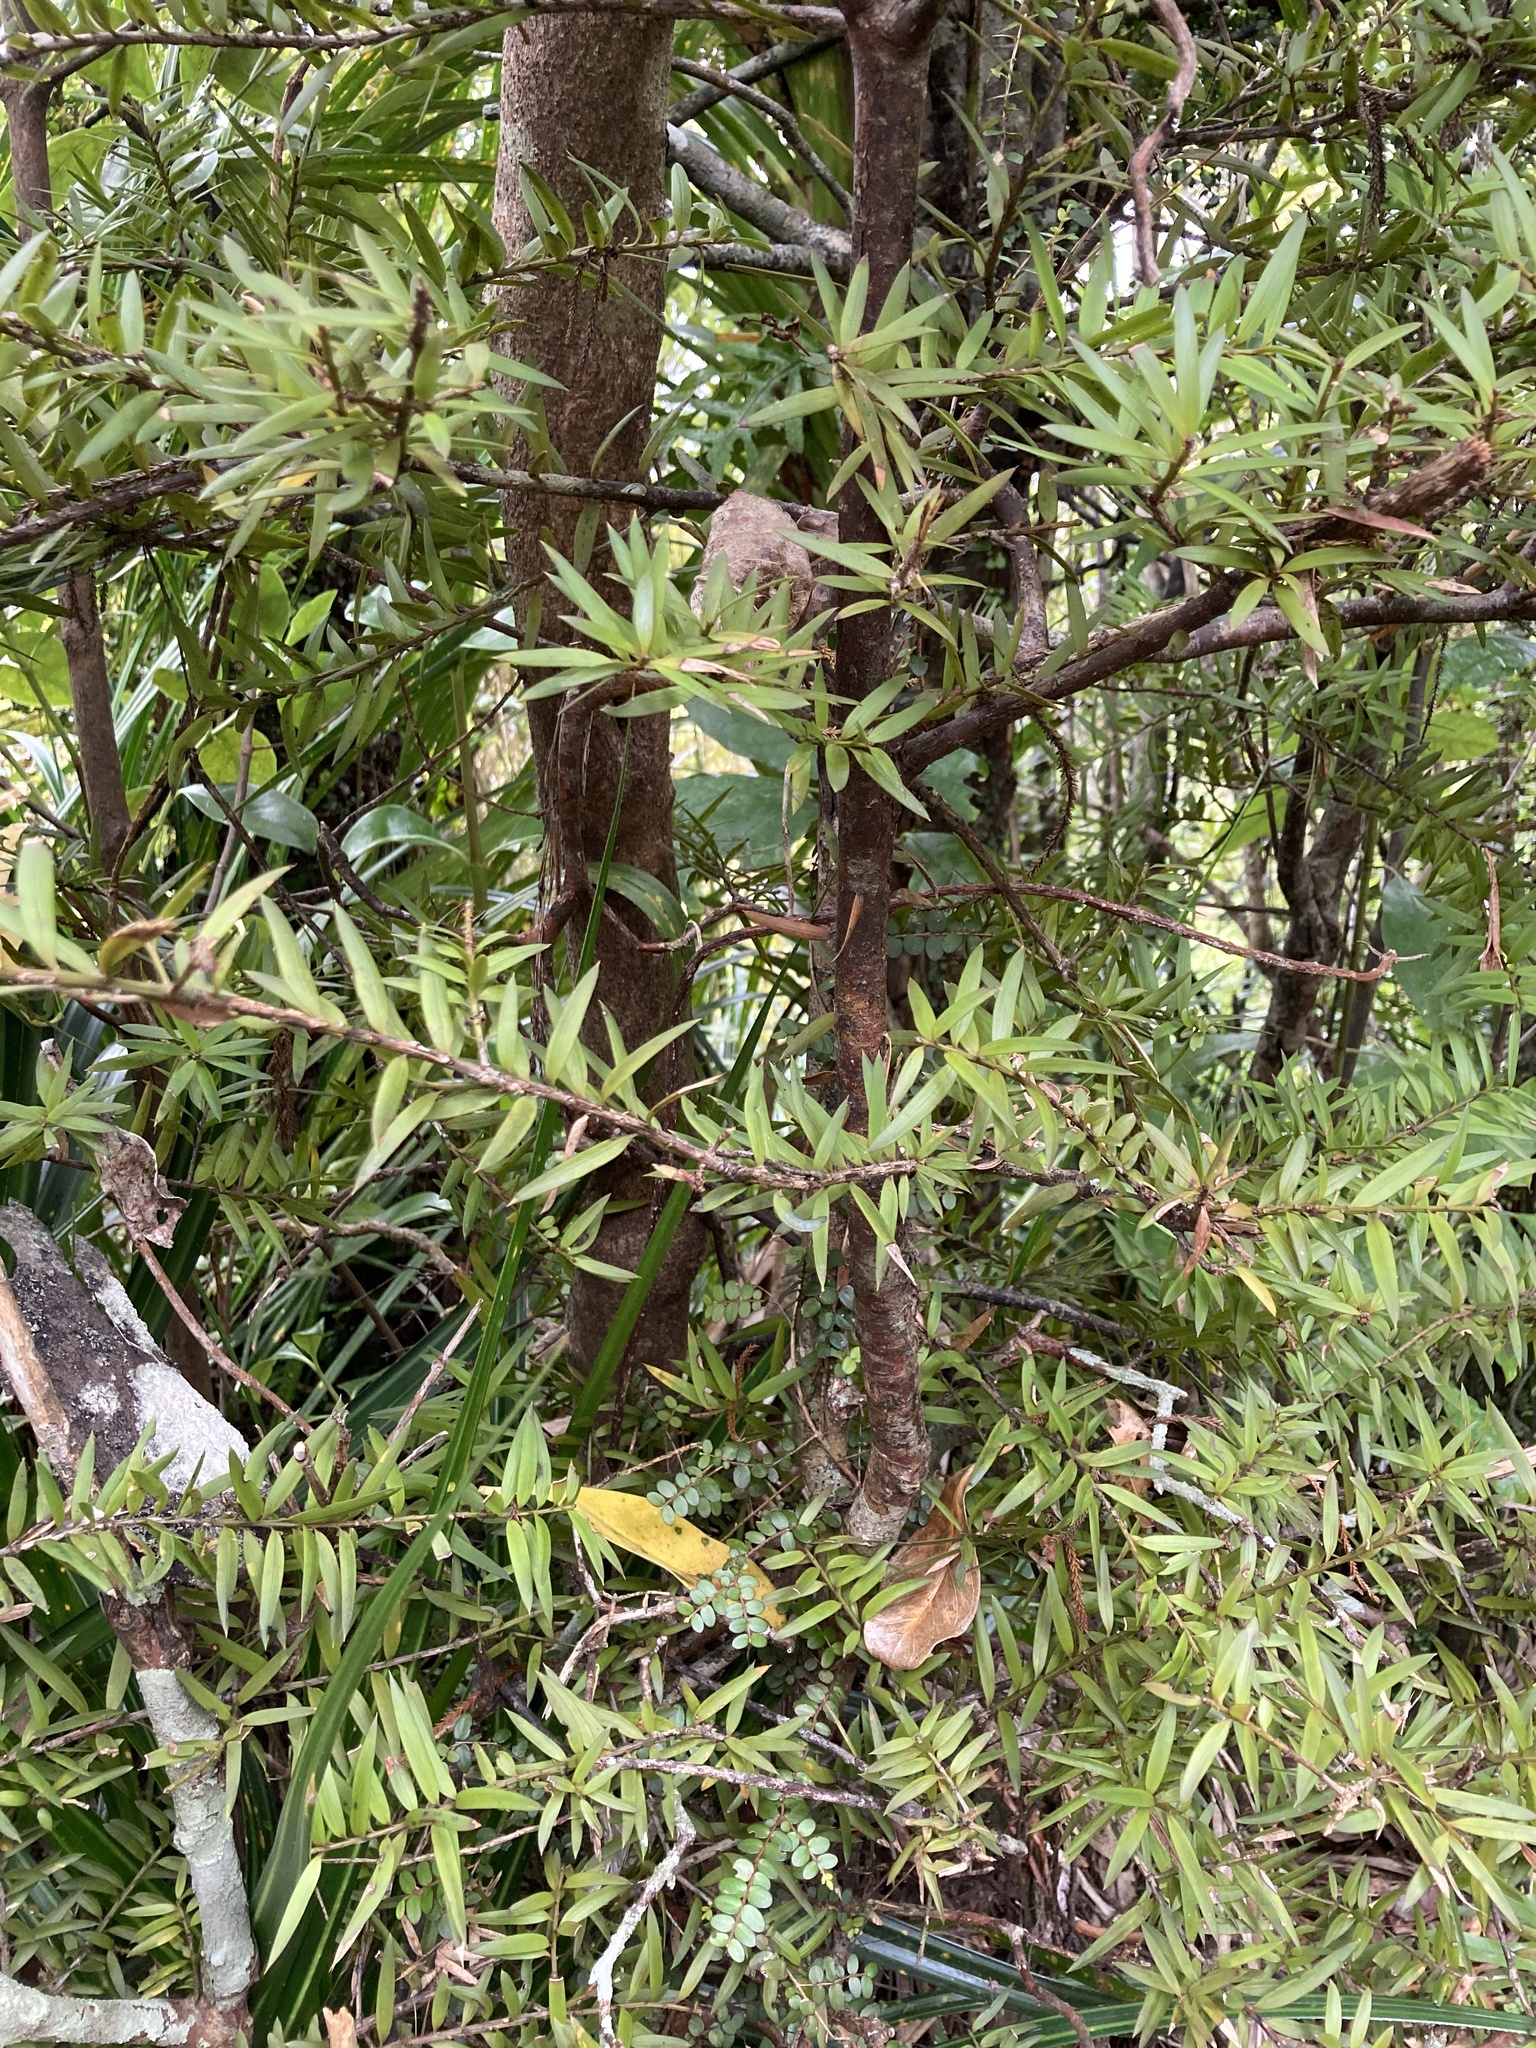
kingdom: Plantae
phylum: Tracheophyta
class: Pinopsida
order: Pinales
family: Podocarpaceae
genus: Podocarpus
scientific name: Podocarpus laetus
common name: Hall's totara
